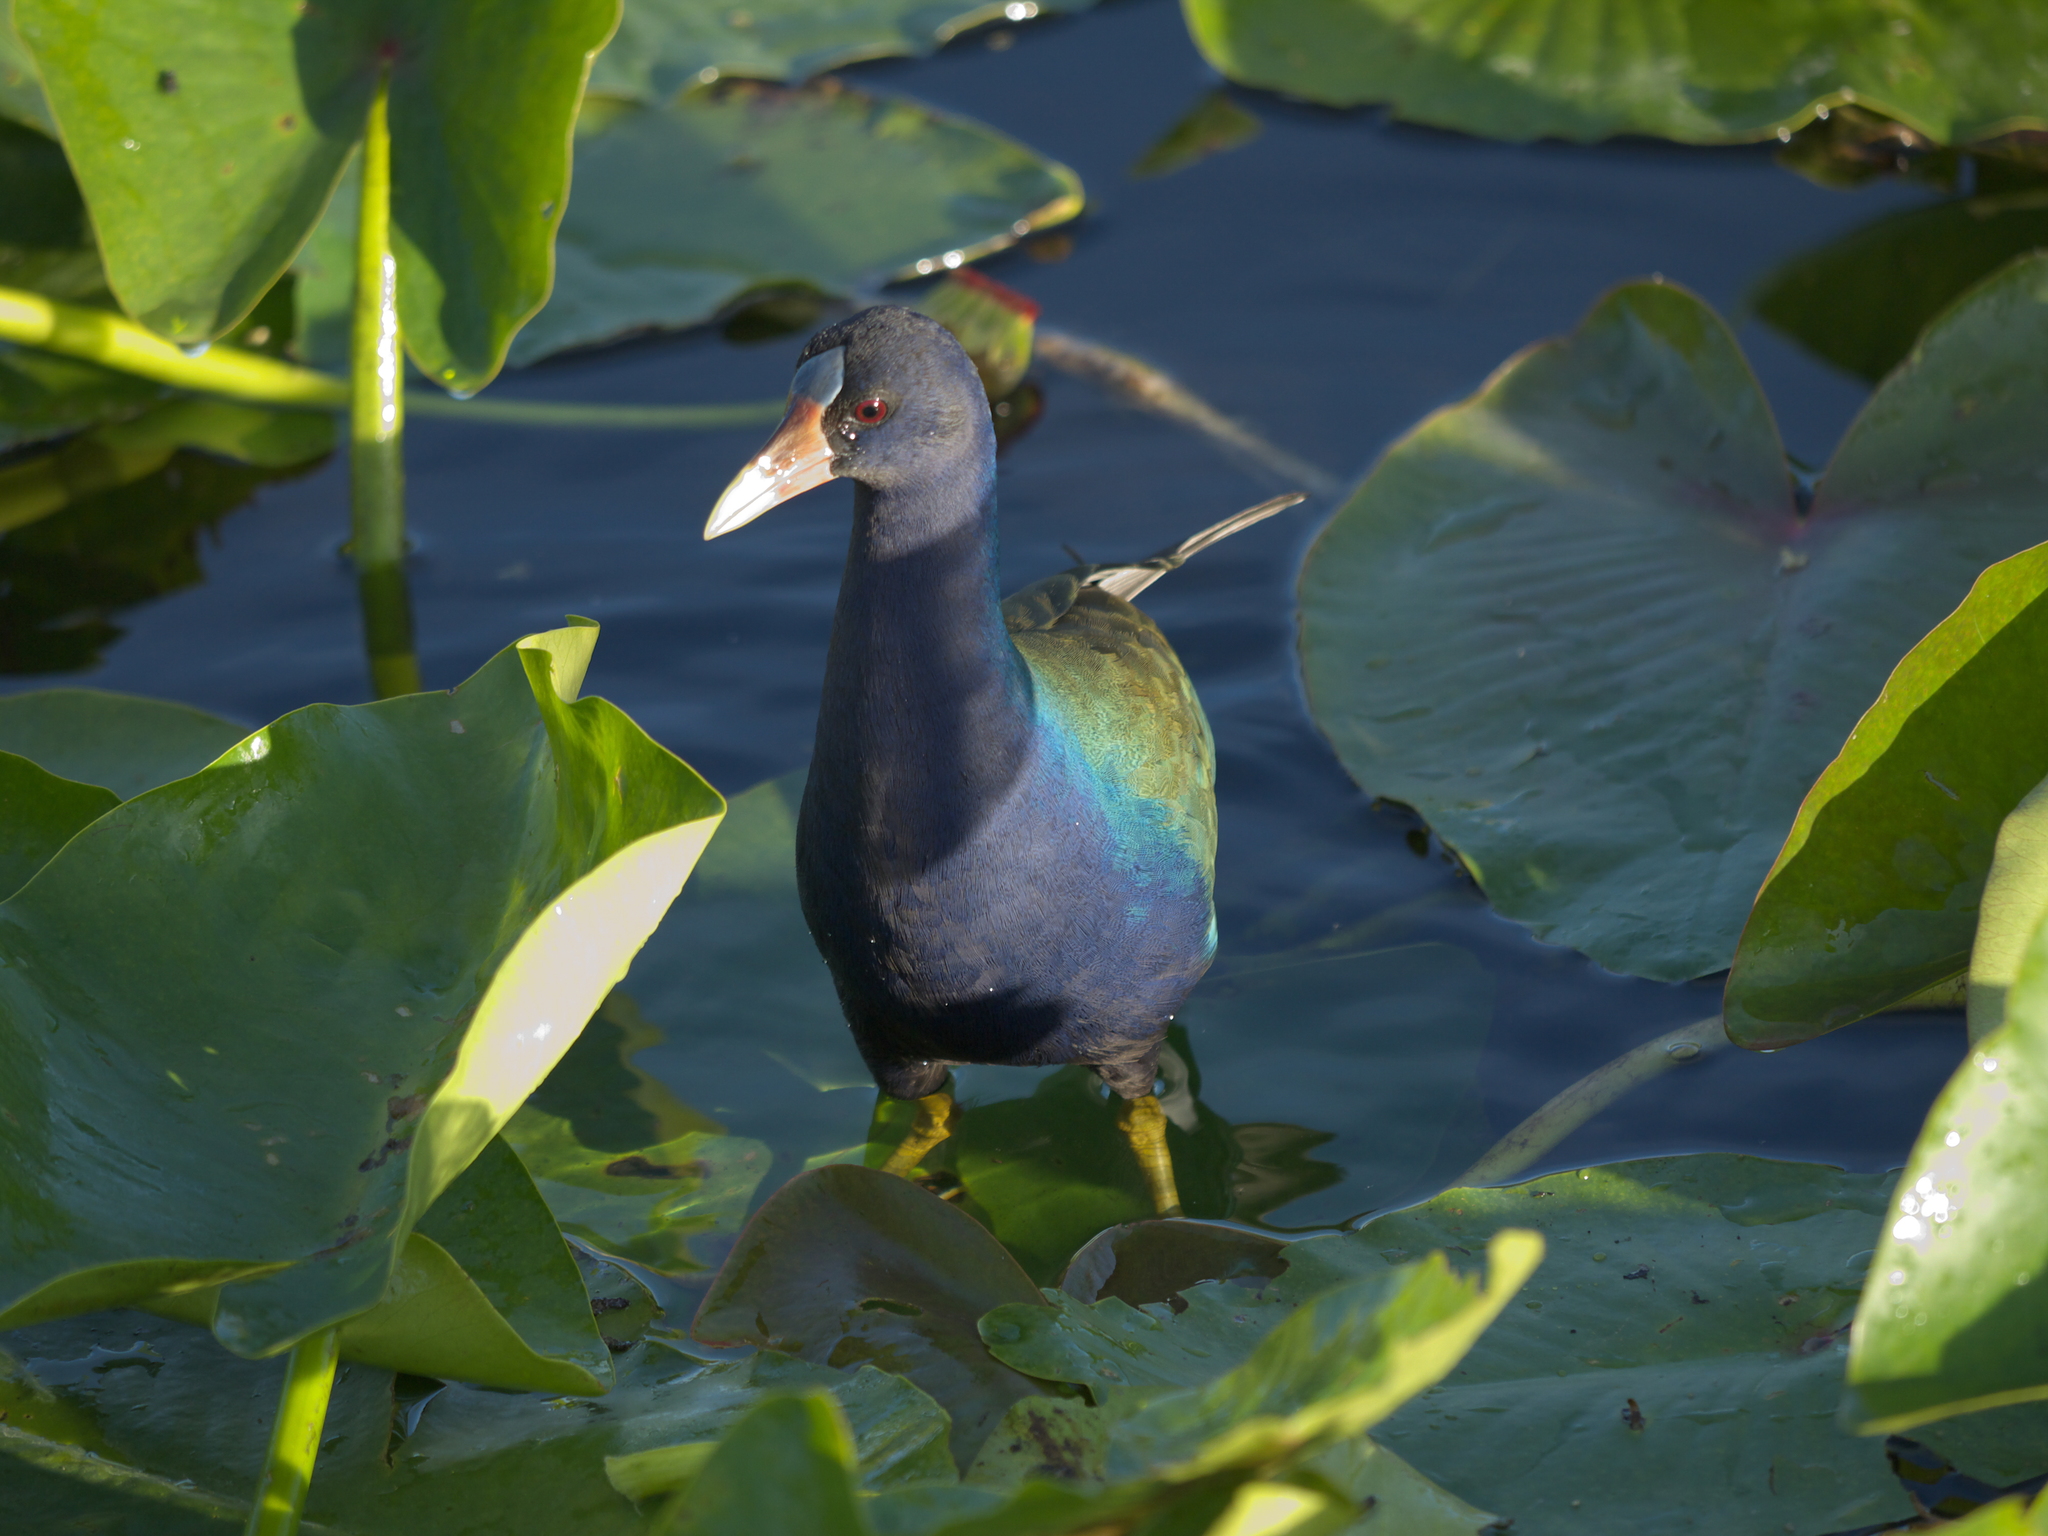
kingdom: Animalia
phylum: Chordata
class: Aves
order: Gruiformes
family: Rallidae
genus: Porphyrio
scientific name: Porphyrio martinica
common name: Purple gallinule
